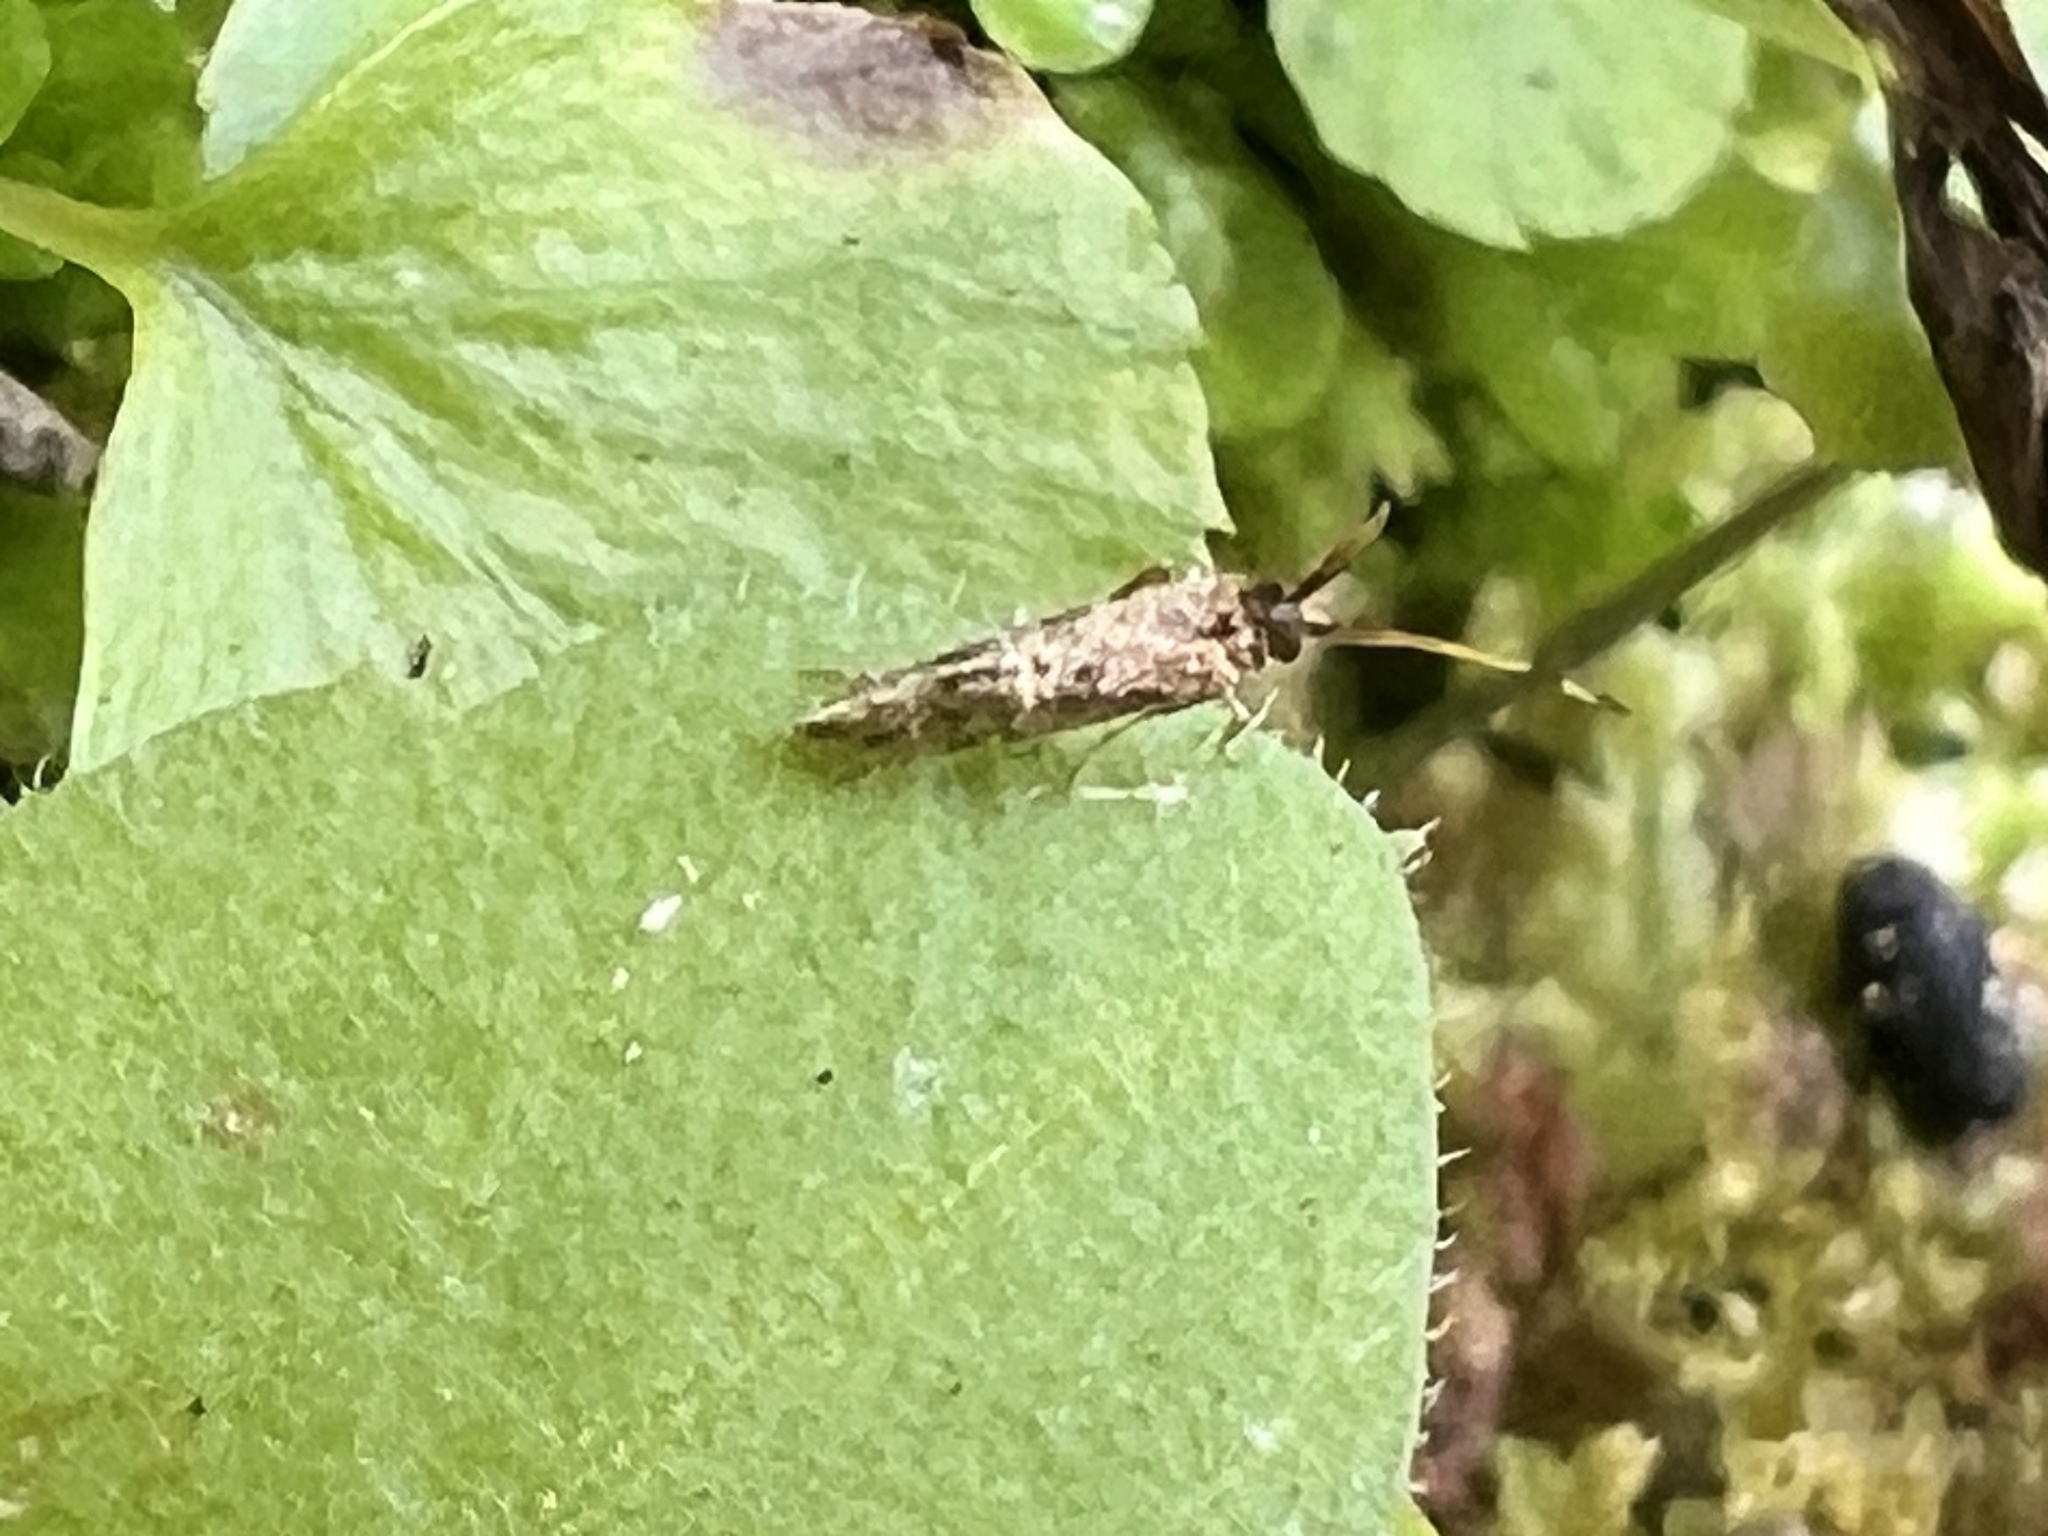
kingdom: Animalia
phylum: Arthropoda
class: Insecta
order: Lepidoptera
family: Plutellidae
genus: Leuroperna
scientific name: Leuroperna sera
